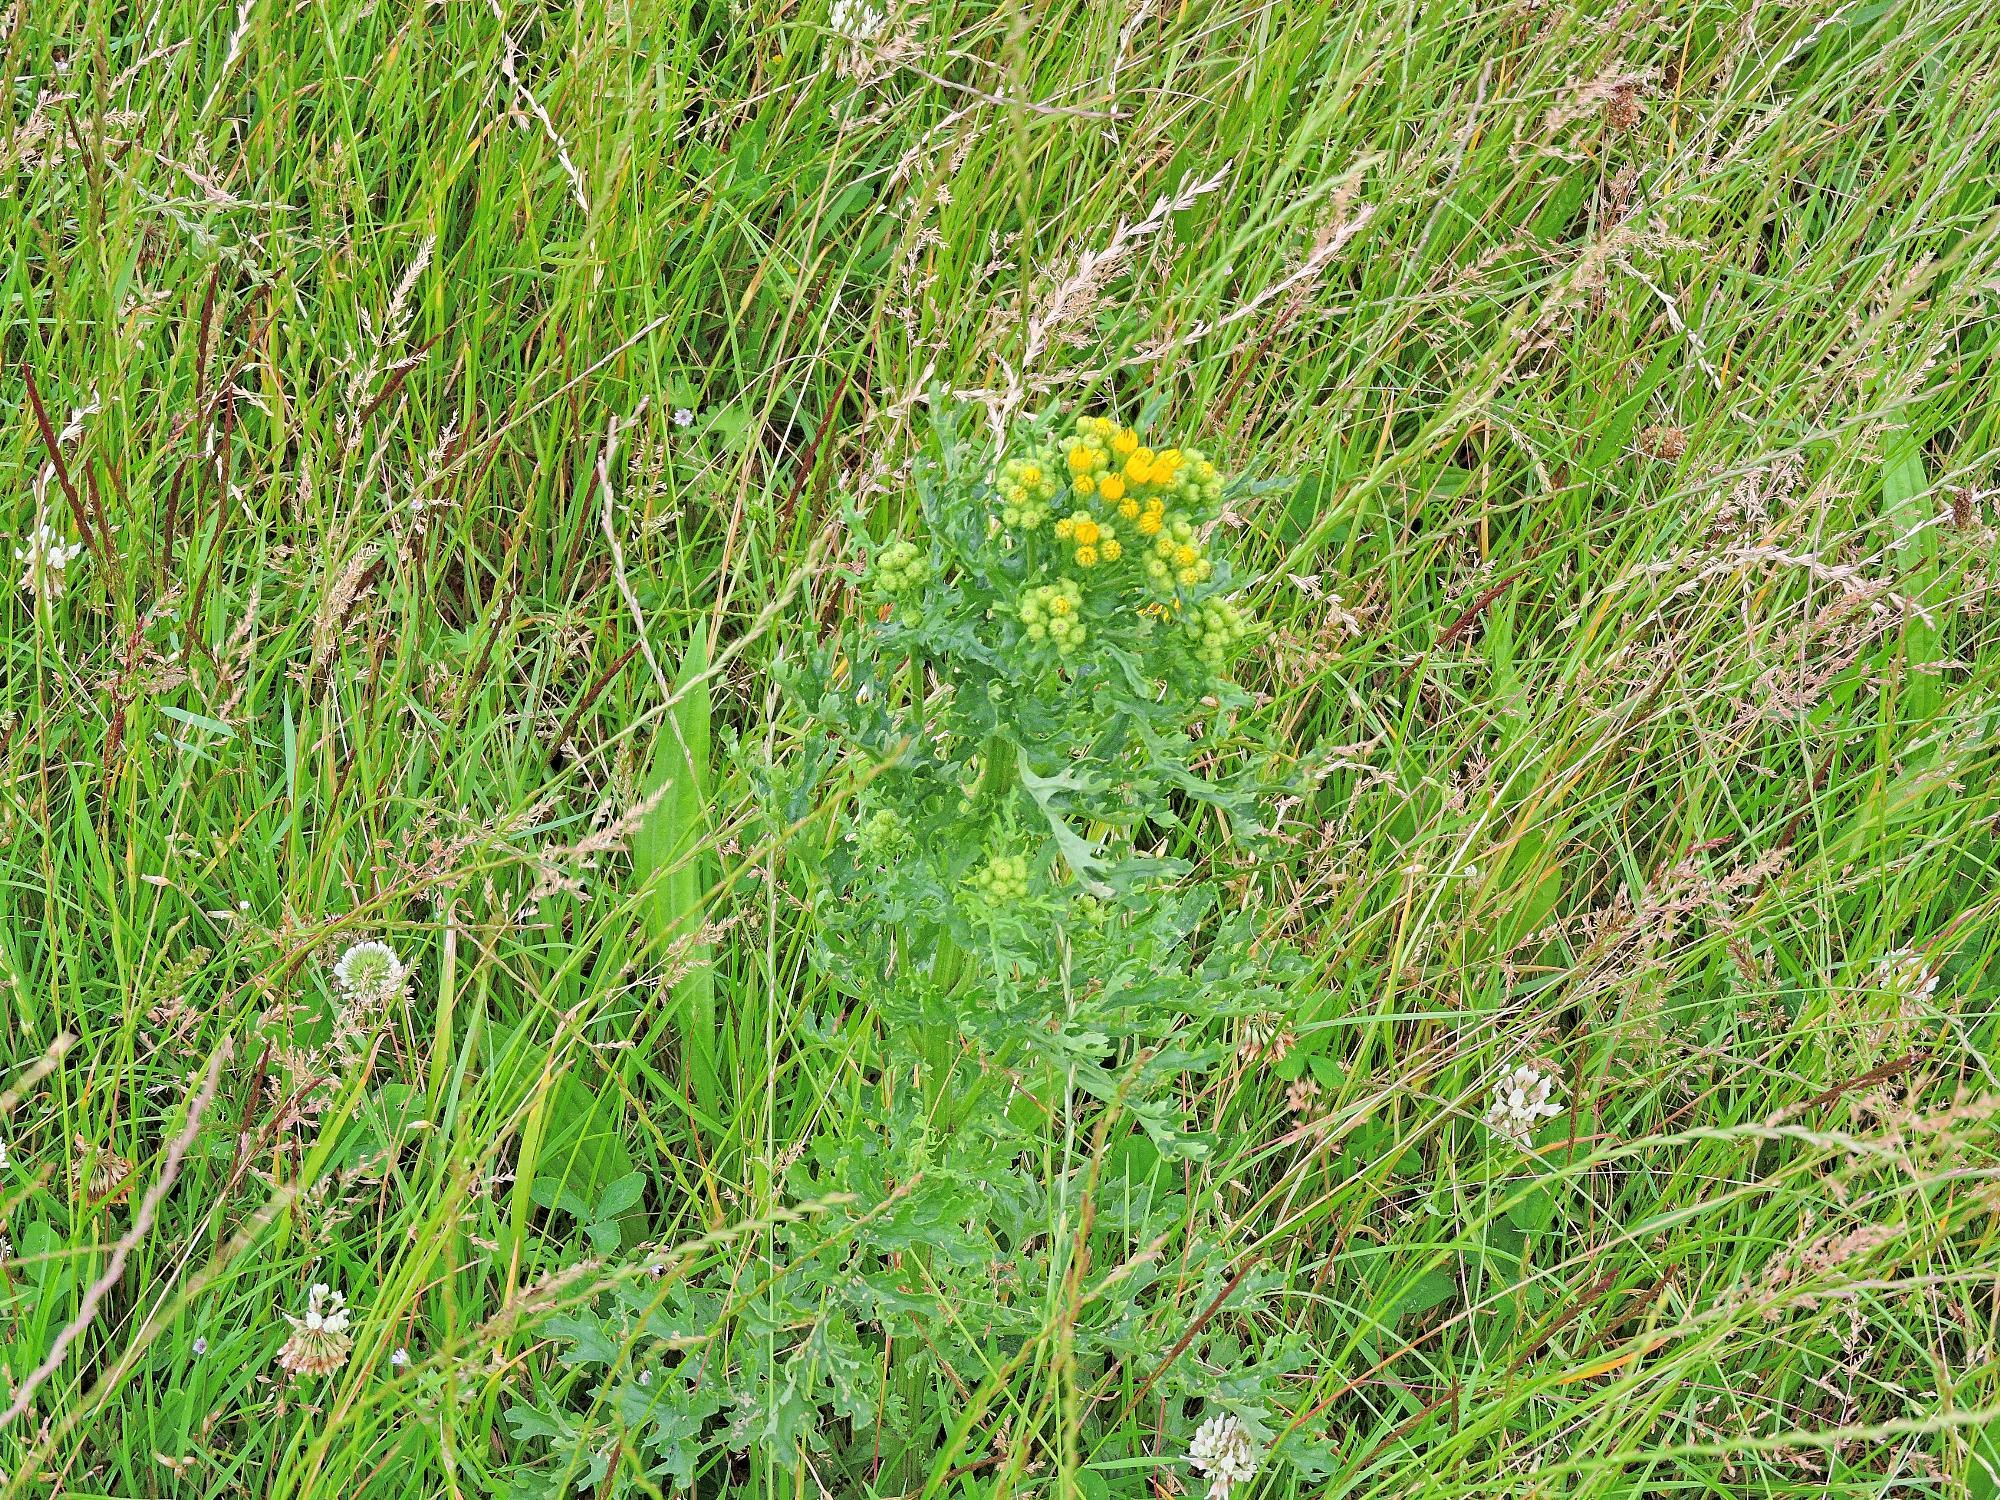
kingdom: Plantae
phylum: Tracheophyta
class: Magnoliopsida
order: Asterales
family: Asteraceae
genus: Jacobaea
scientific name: Jacobaea vulgaris
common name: Stinking willie
